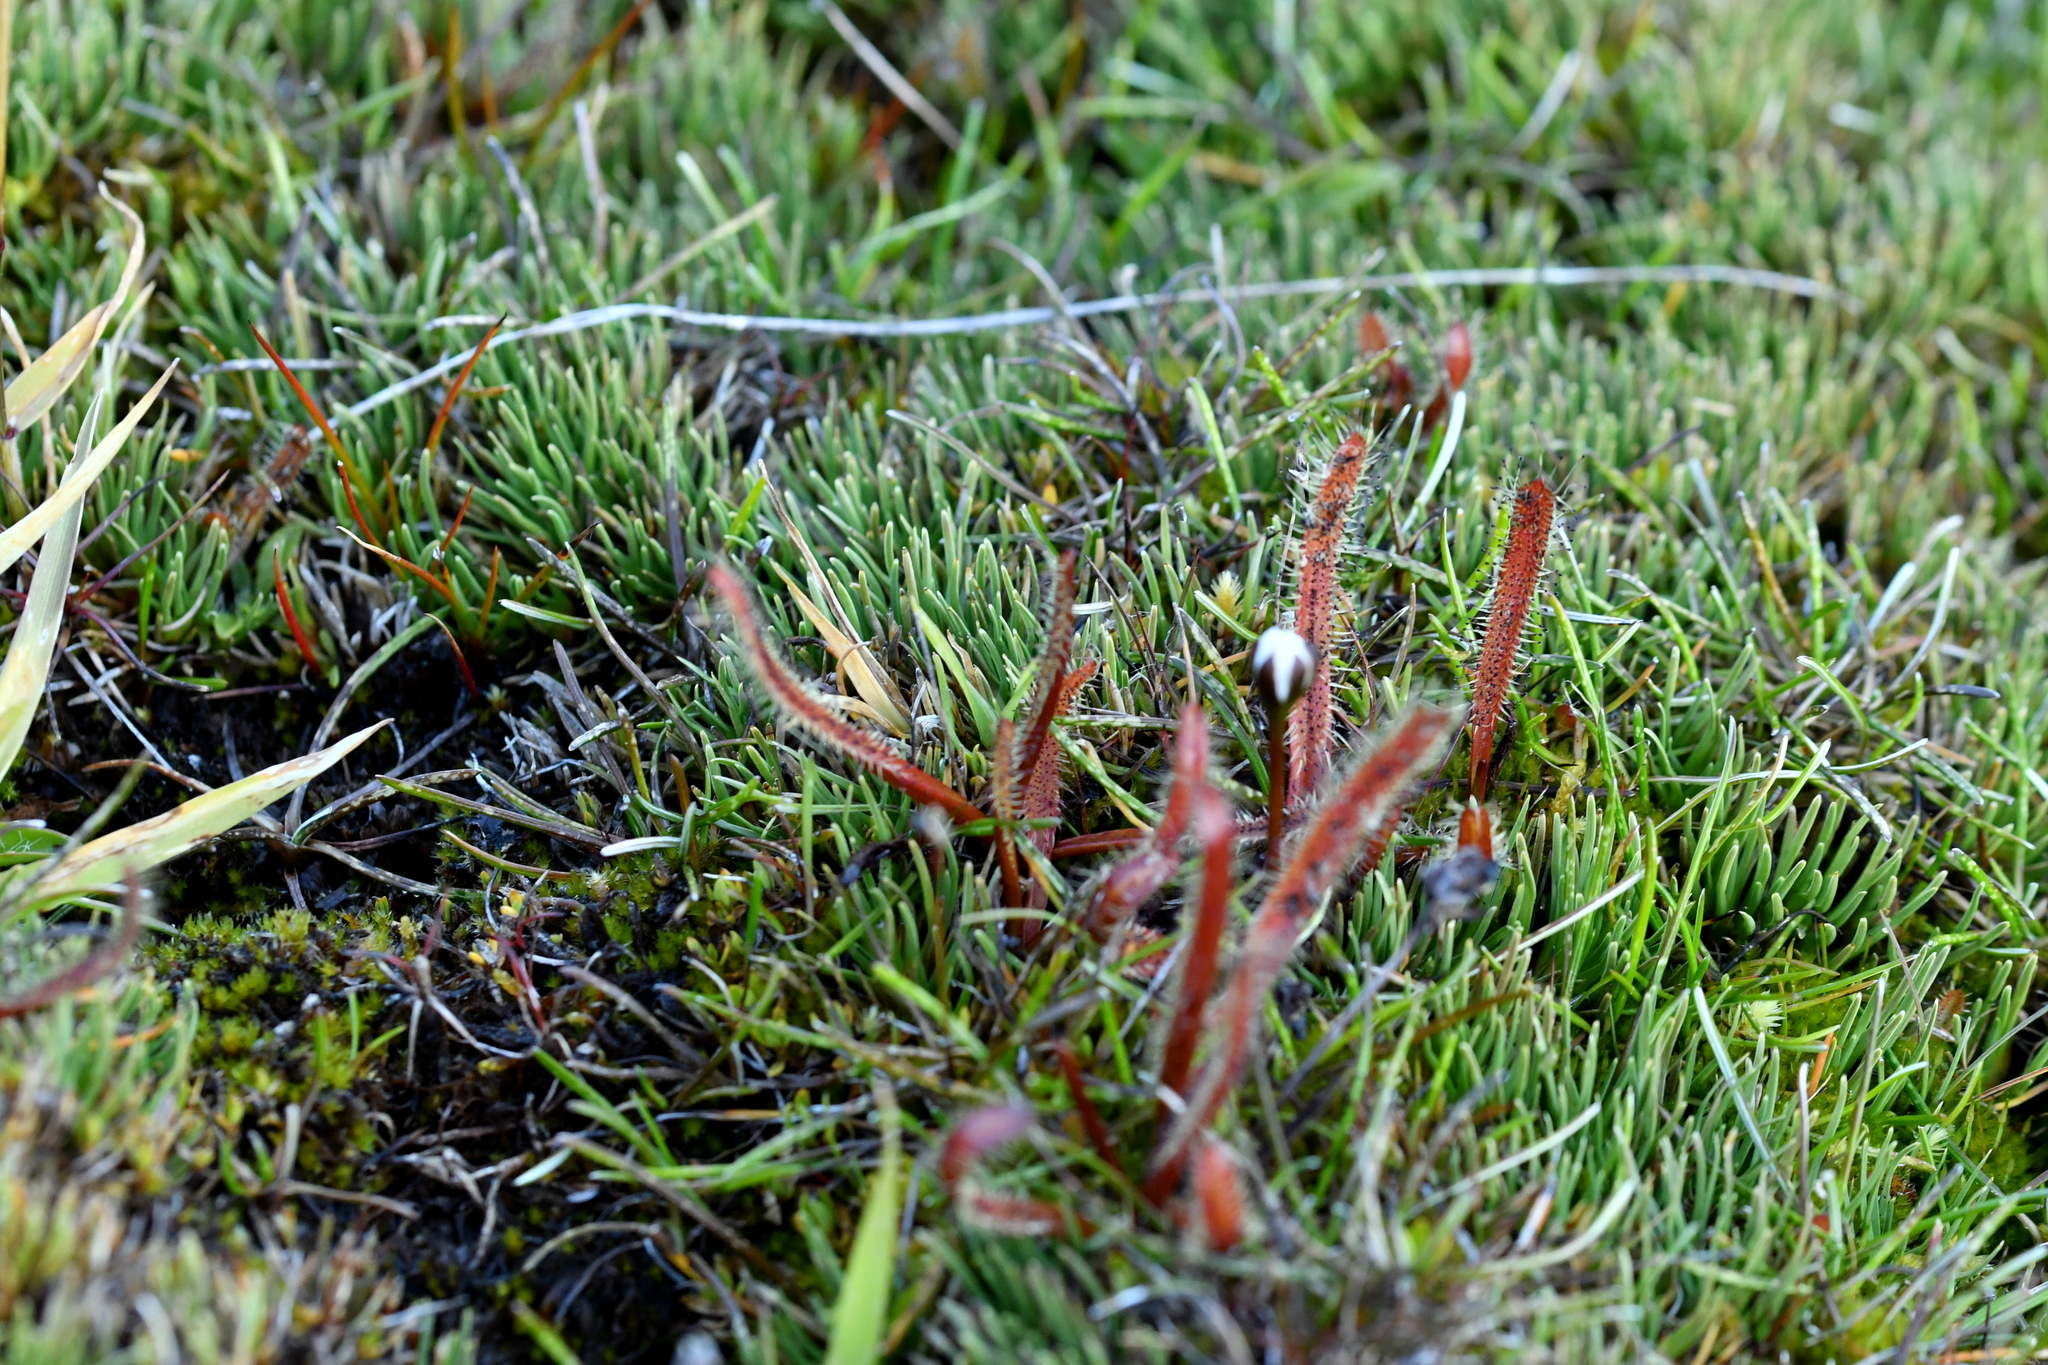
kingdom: Plantae
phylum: Tracheophyta
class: Magnoliopsida
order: Caryophyllales
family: Droseraceae
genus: Drosera
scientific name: Drosera arcturi
